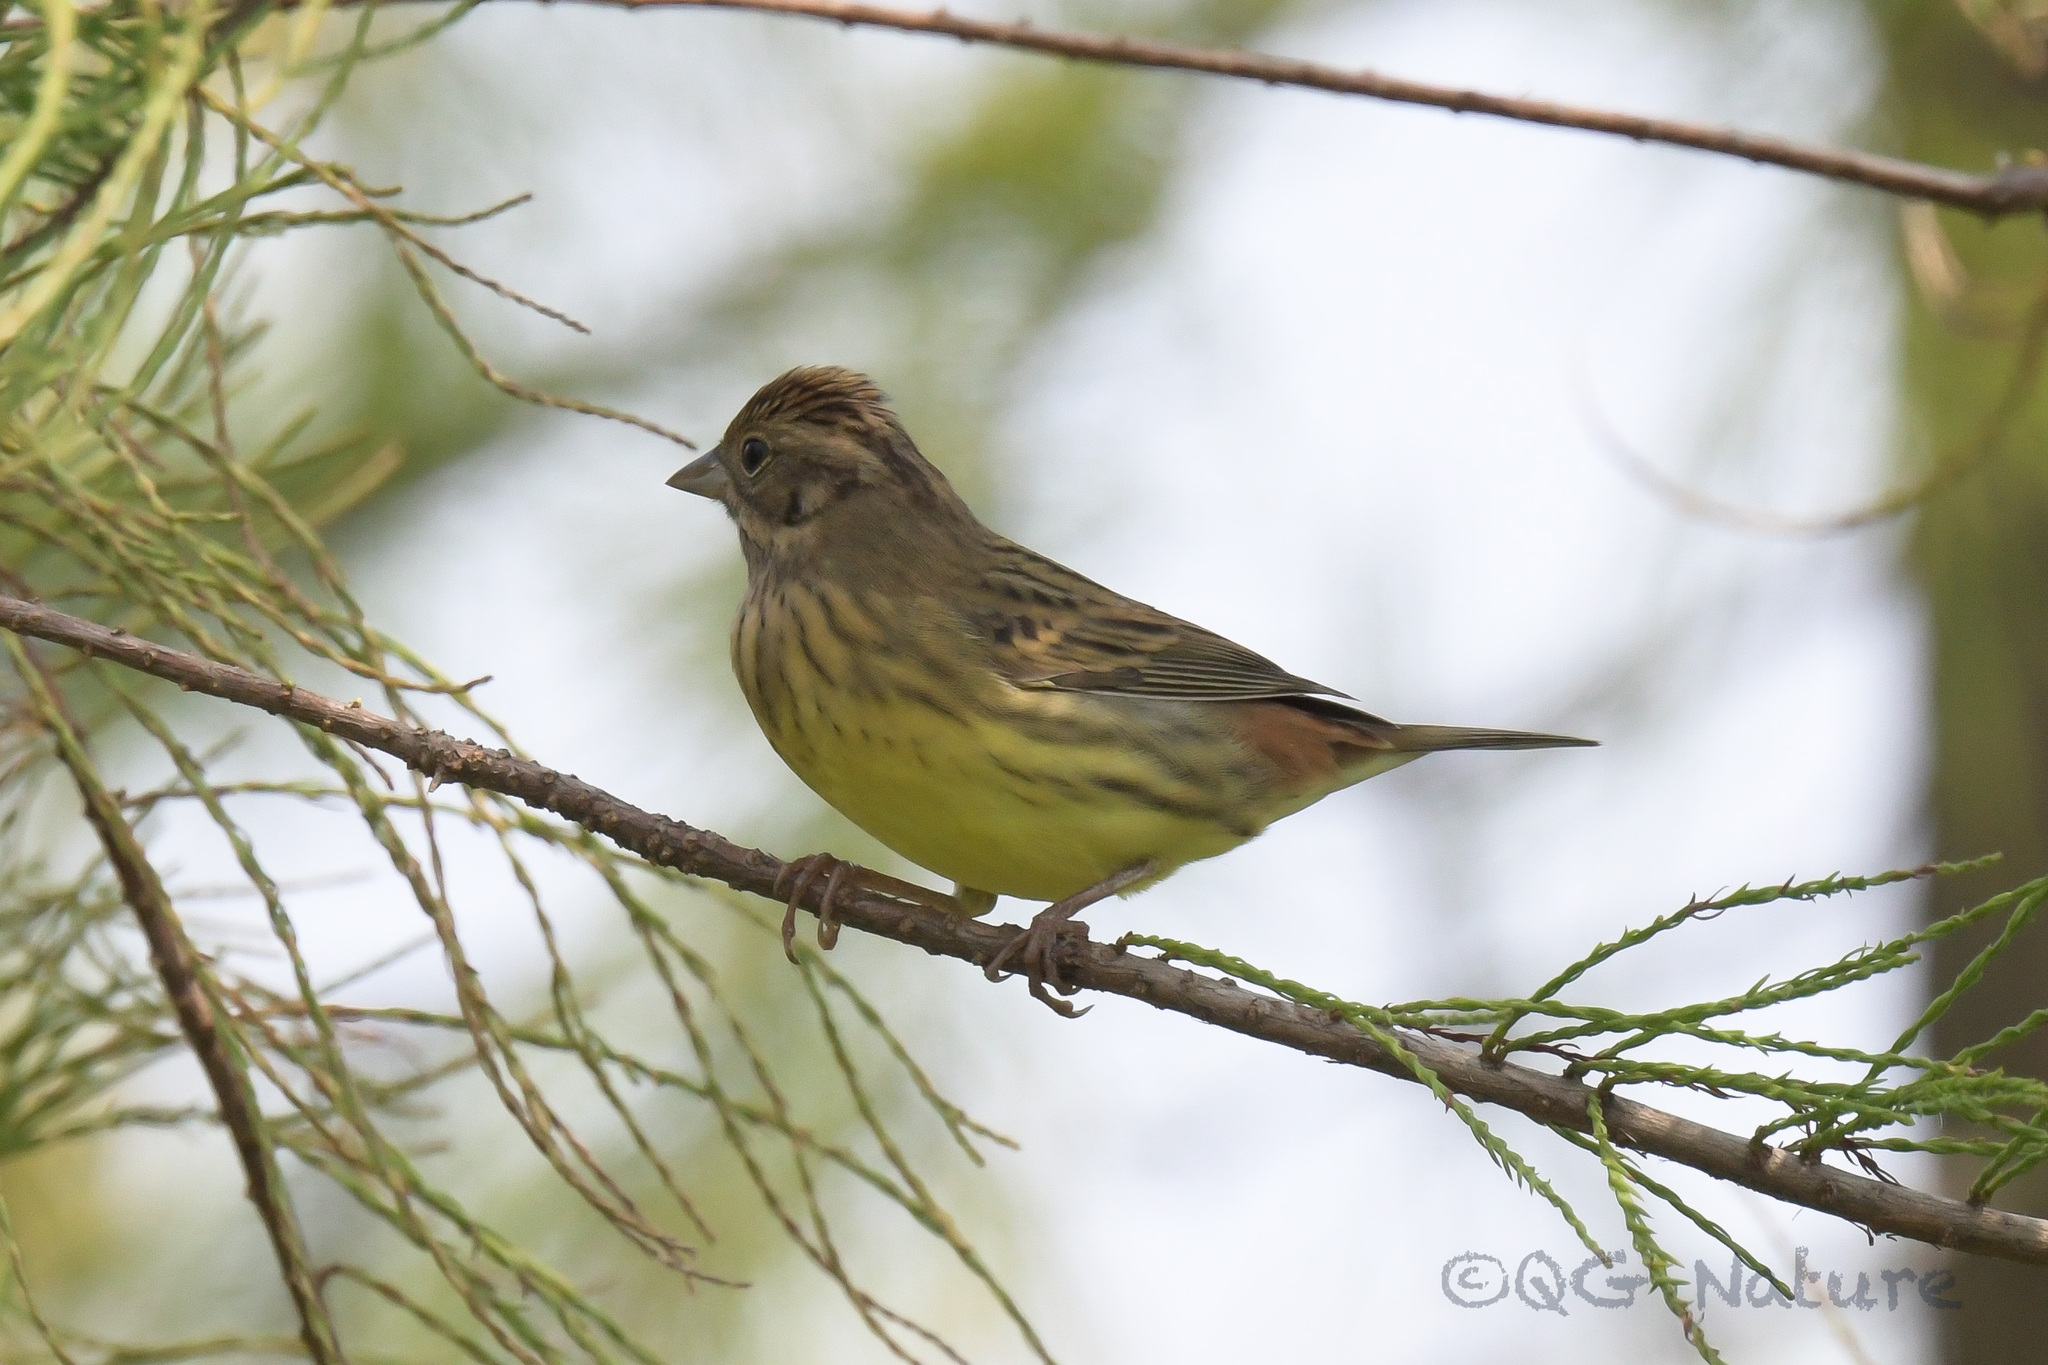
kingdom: Animalia
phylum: Chordata
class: Aves
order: Passeriformes
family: Emberizidae
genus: Emberiza
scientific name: Emberiza rutila
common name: Chestnut bunting
